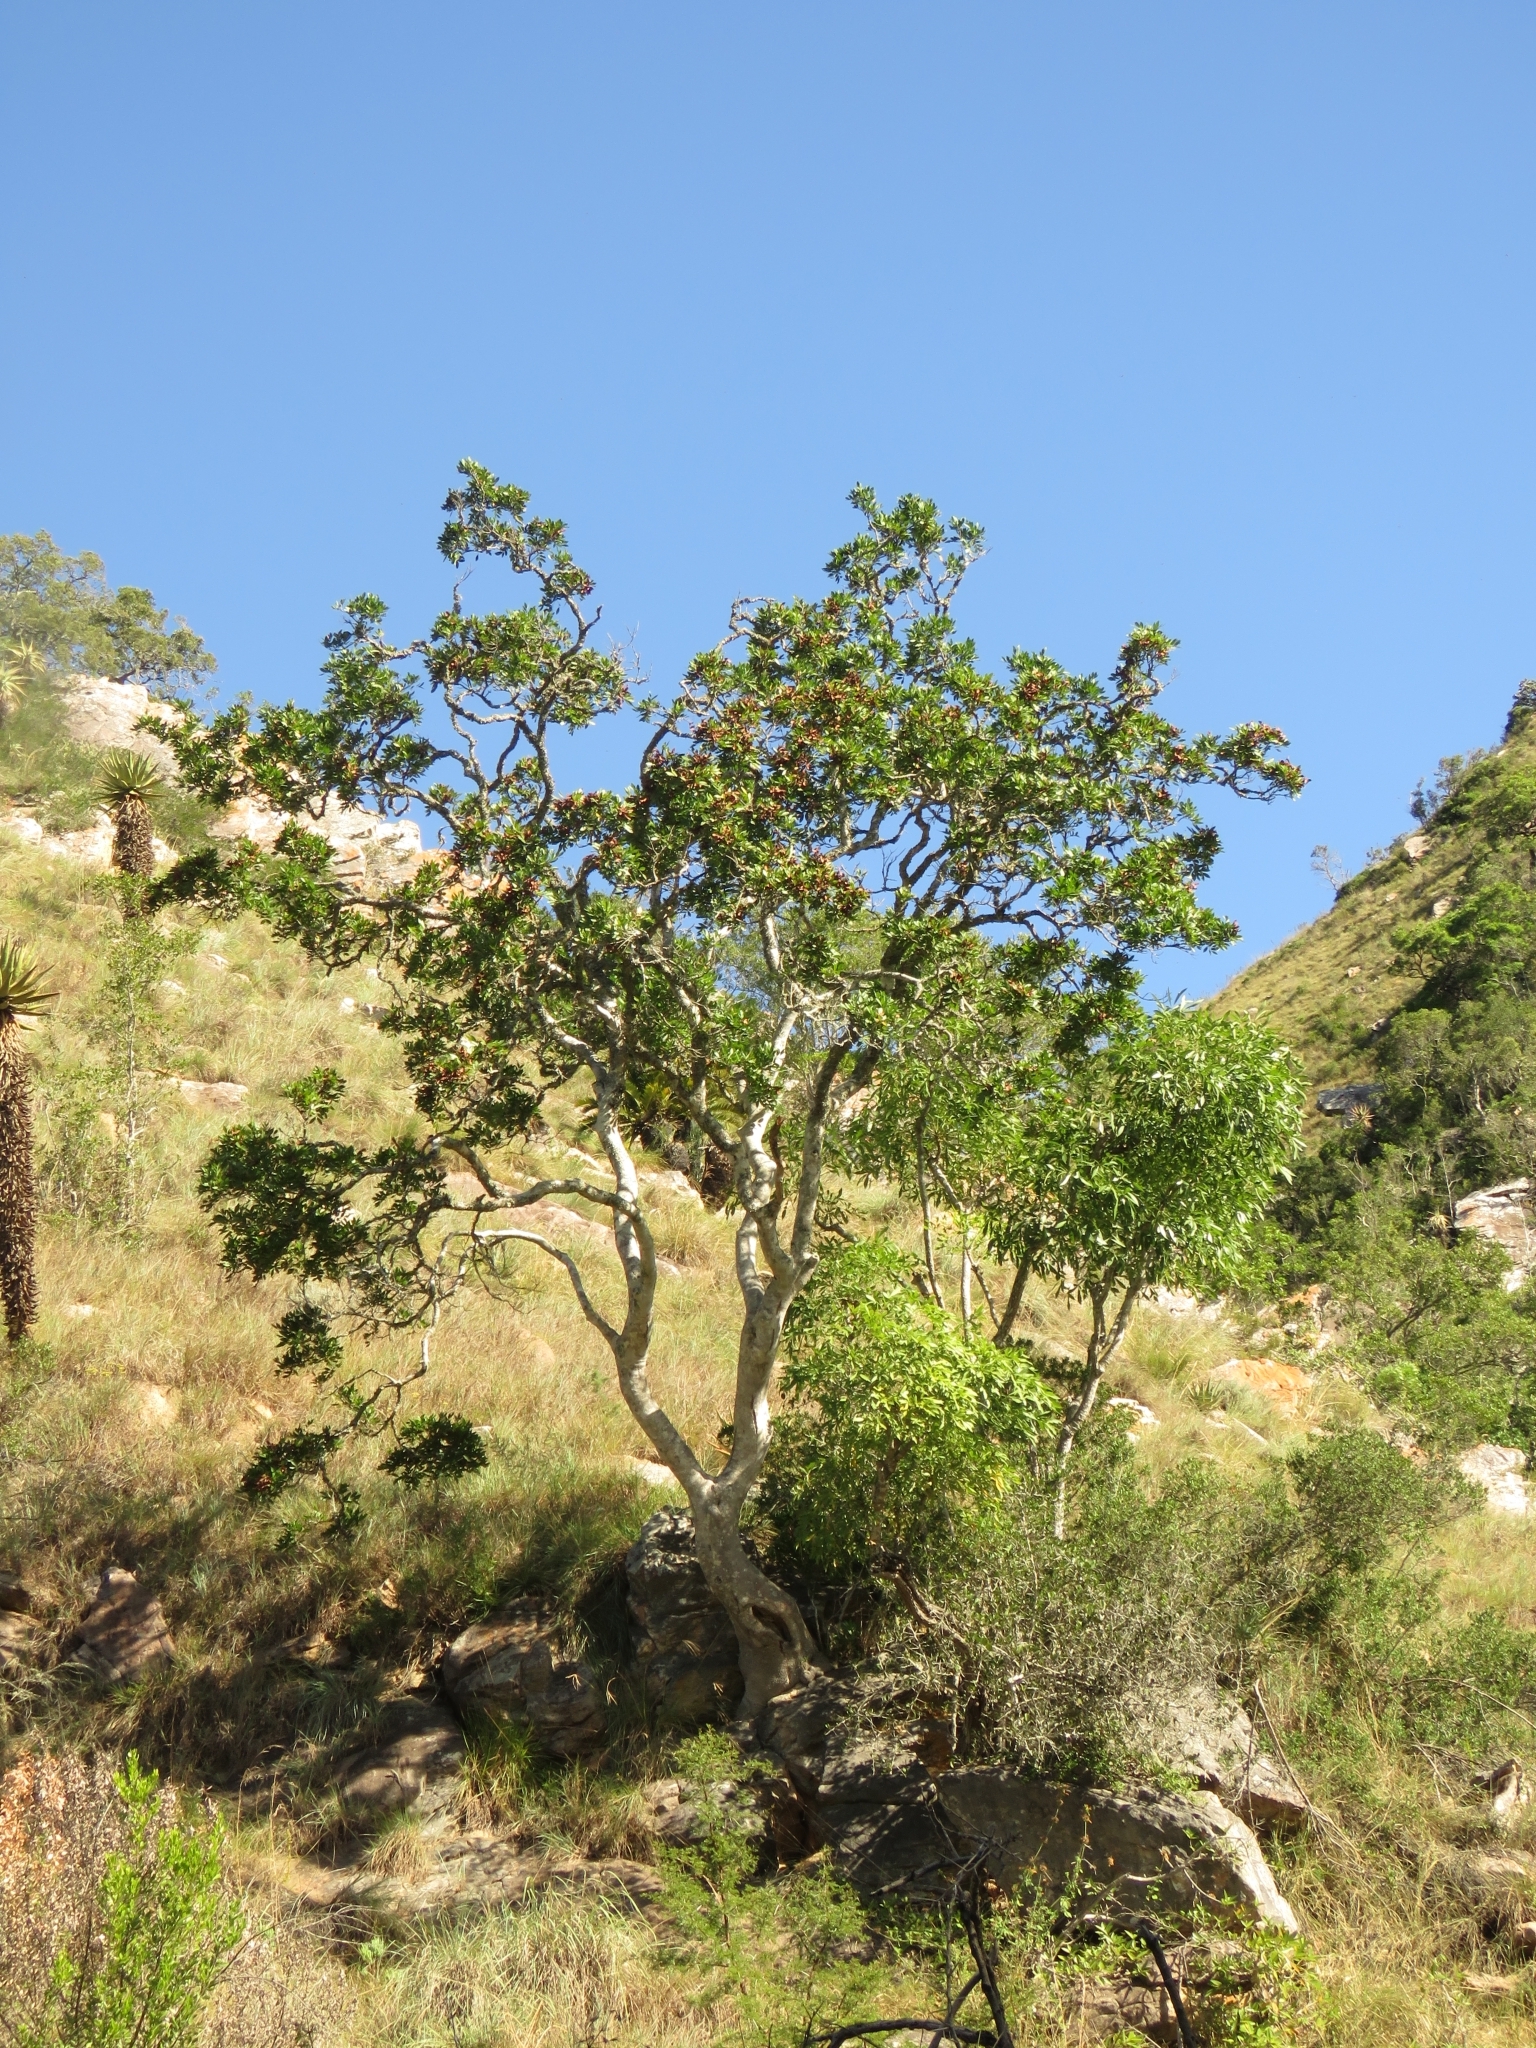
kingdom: Plantae
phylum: Tracheophyta
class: Magnoliopsida
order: Sapindales
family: Sapindaceae
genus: Atalaya
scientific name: Atalaya capensis
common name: Cape krantz ash
